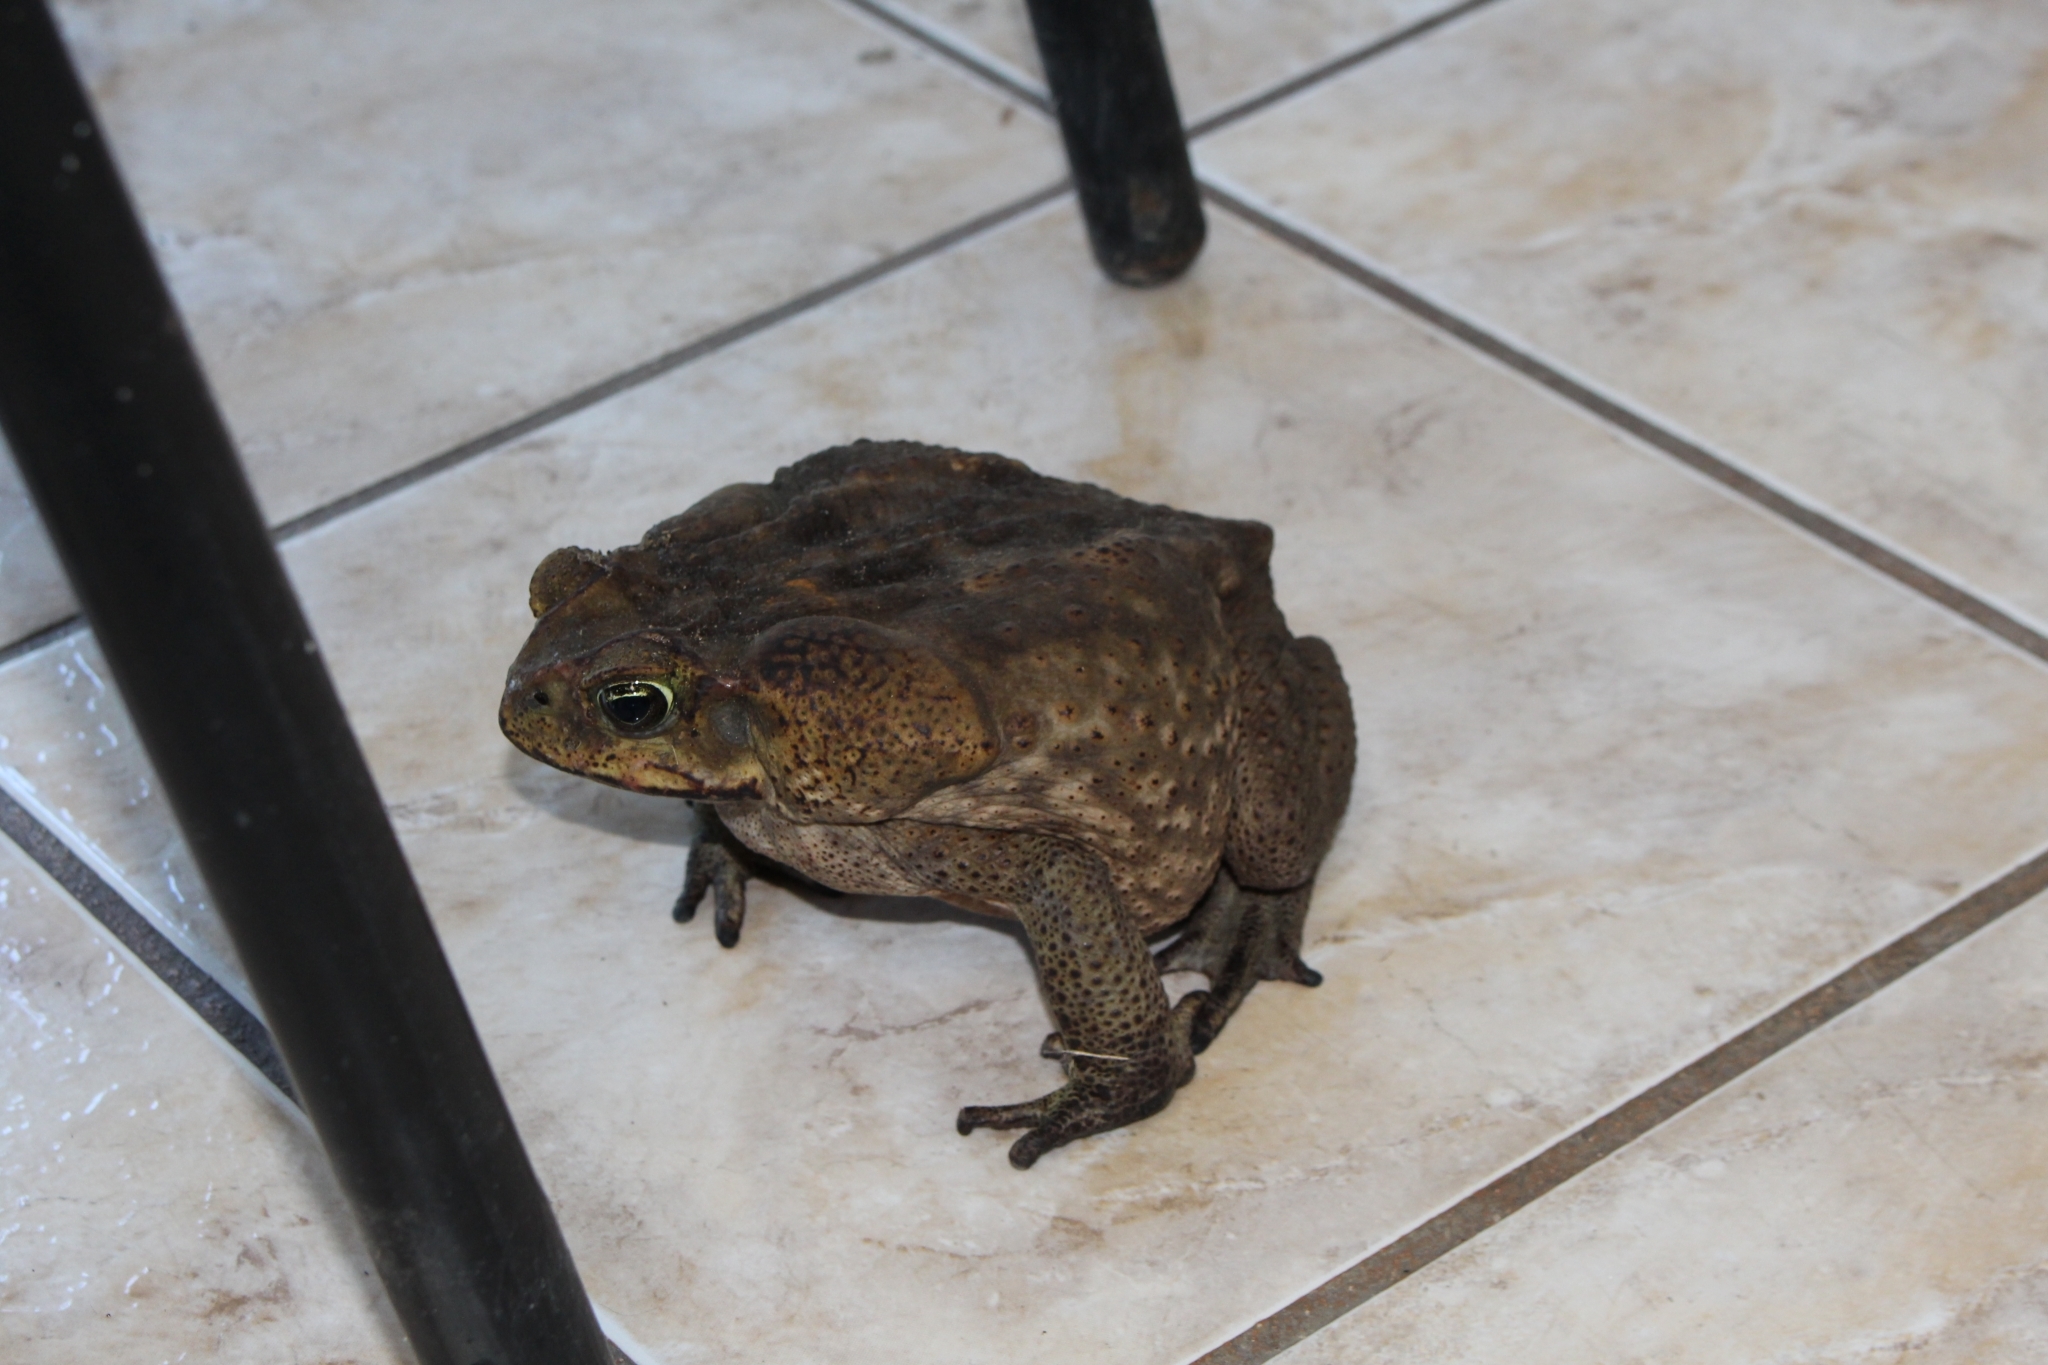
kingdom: Animalia
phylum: Chordata
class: Amphibia
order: Anura
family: Bufonidae
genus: Rhinella
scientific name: Rhinella horribilis
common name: Mesoamerican cane toad
